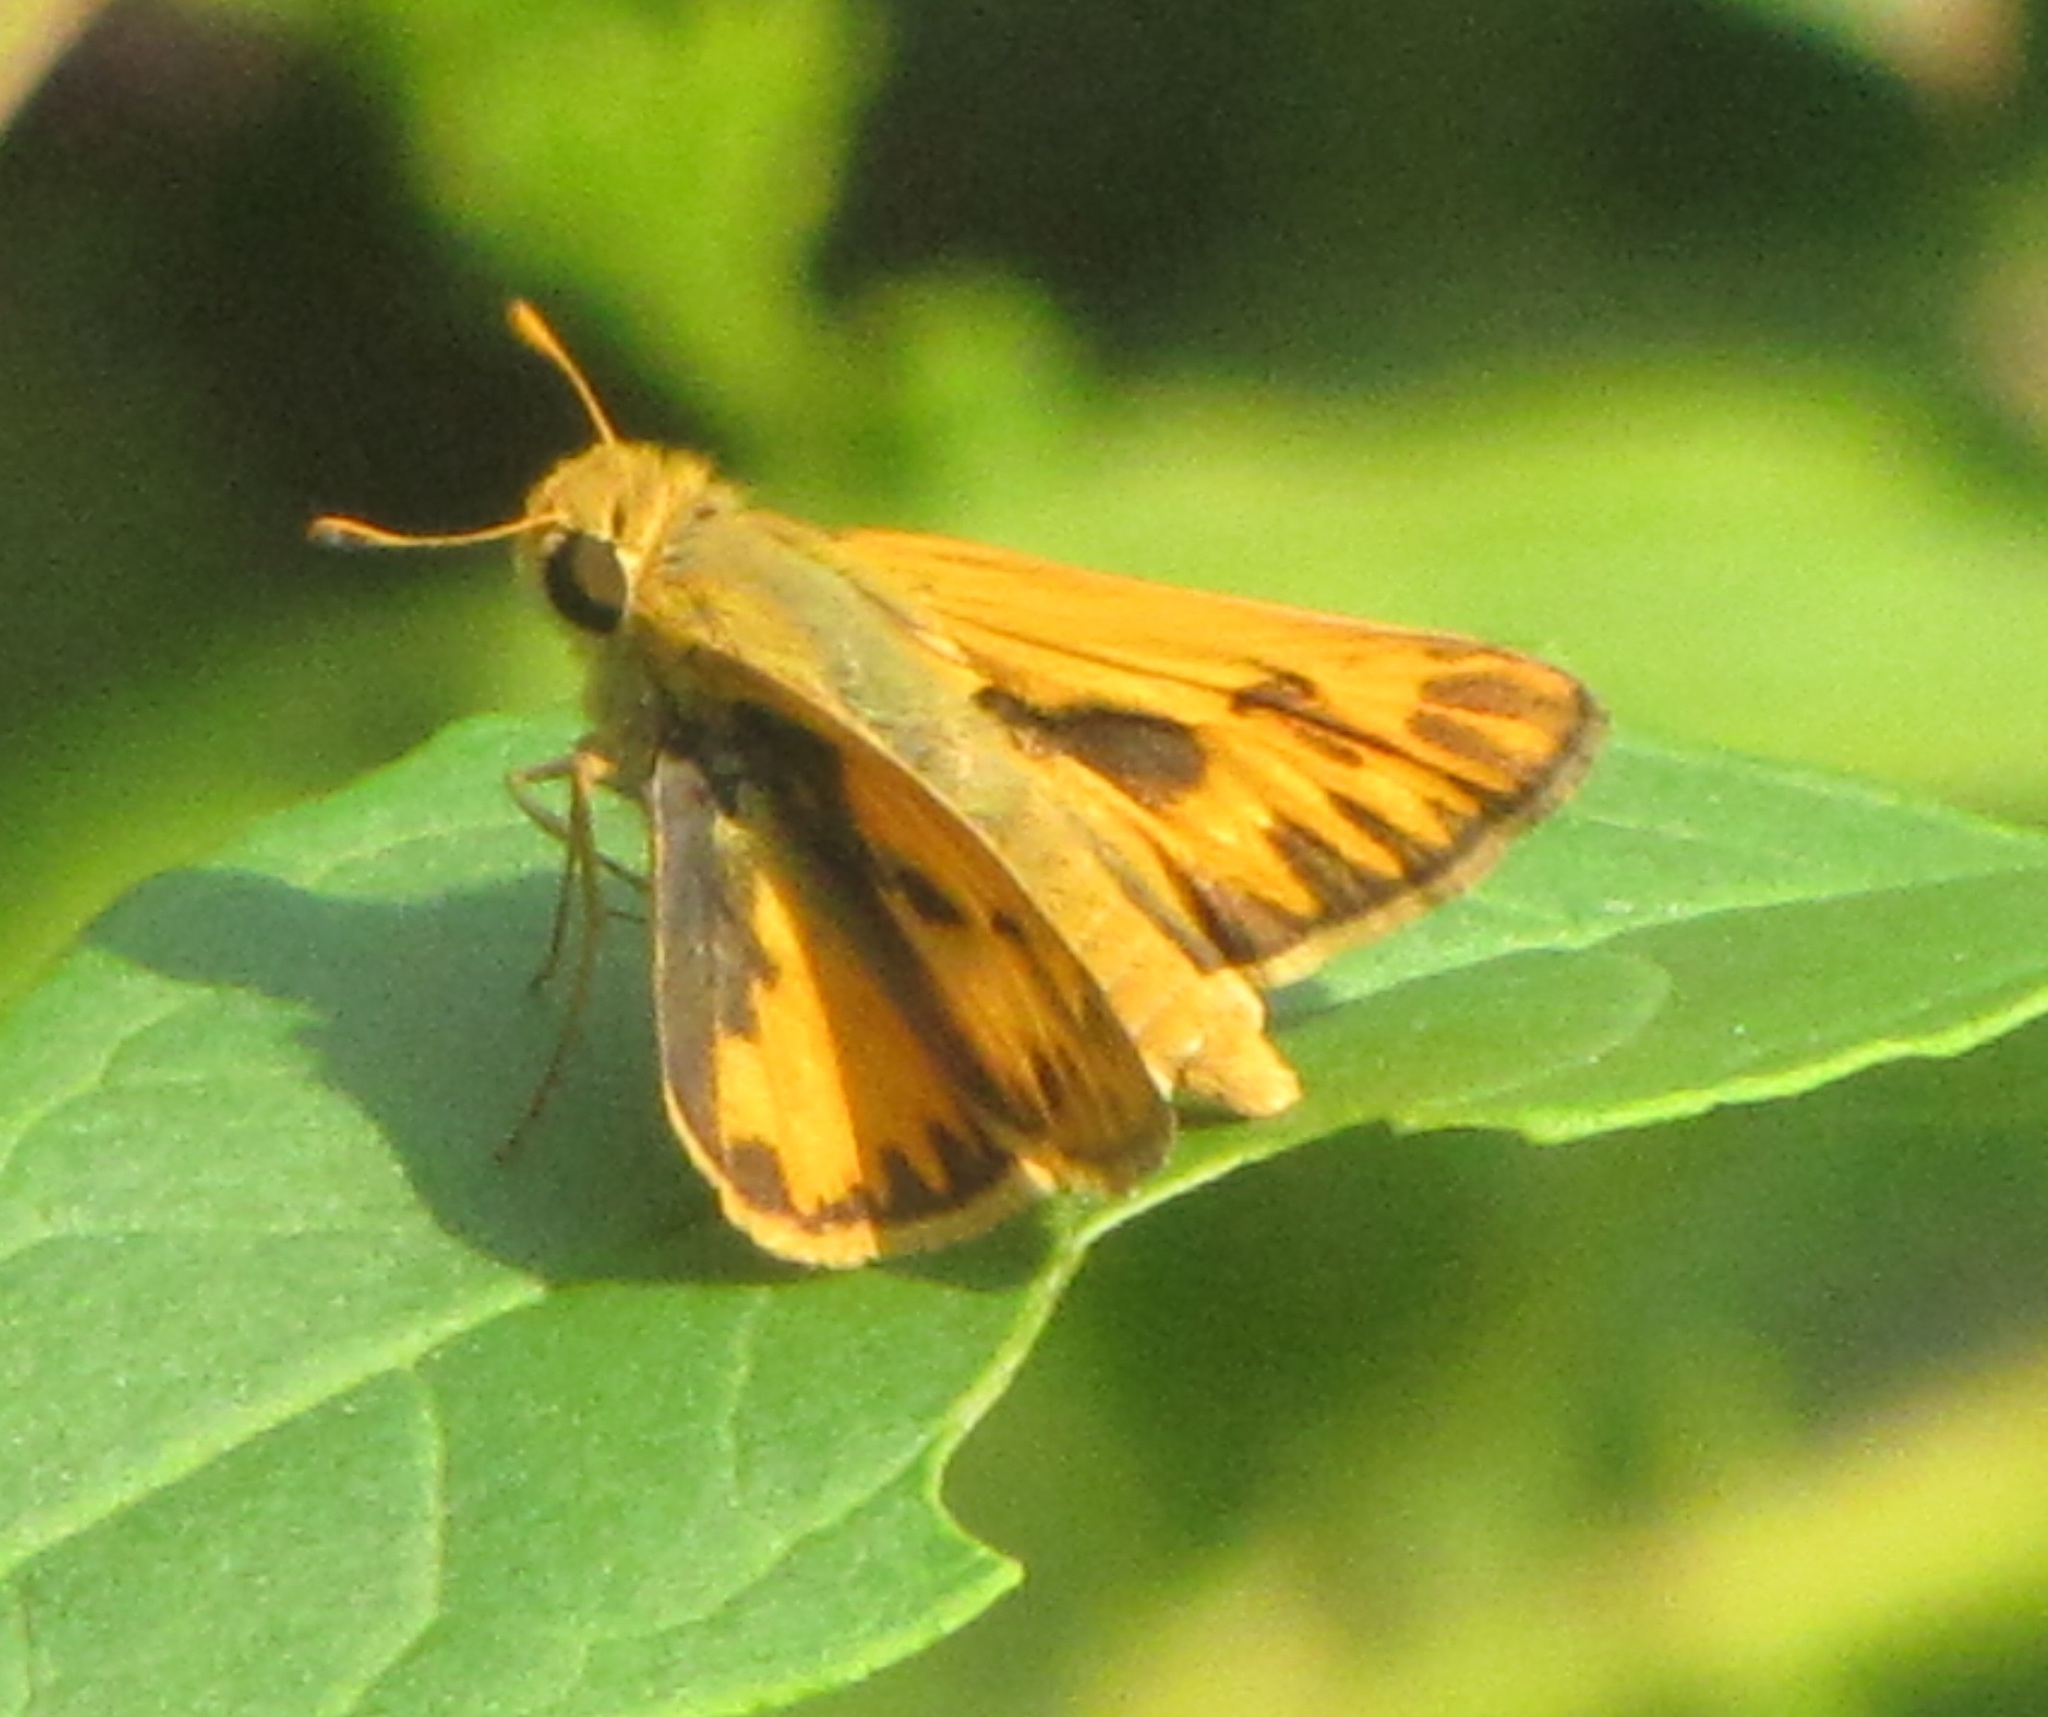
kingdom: Animalia
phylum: Arthropoda
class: Insecta
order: Lepidoptera
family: Hesperiidae
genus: Hylephila
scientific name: Hylephila phyleus
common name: Fiery skipper
